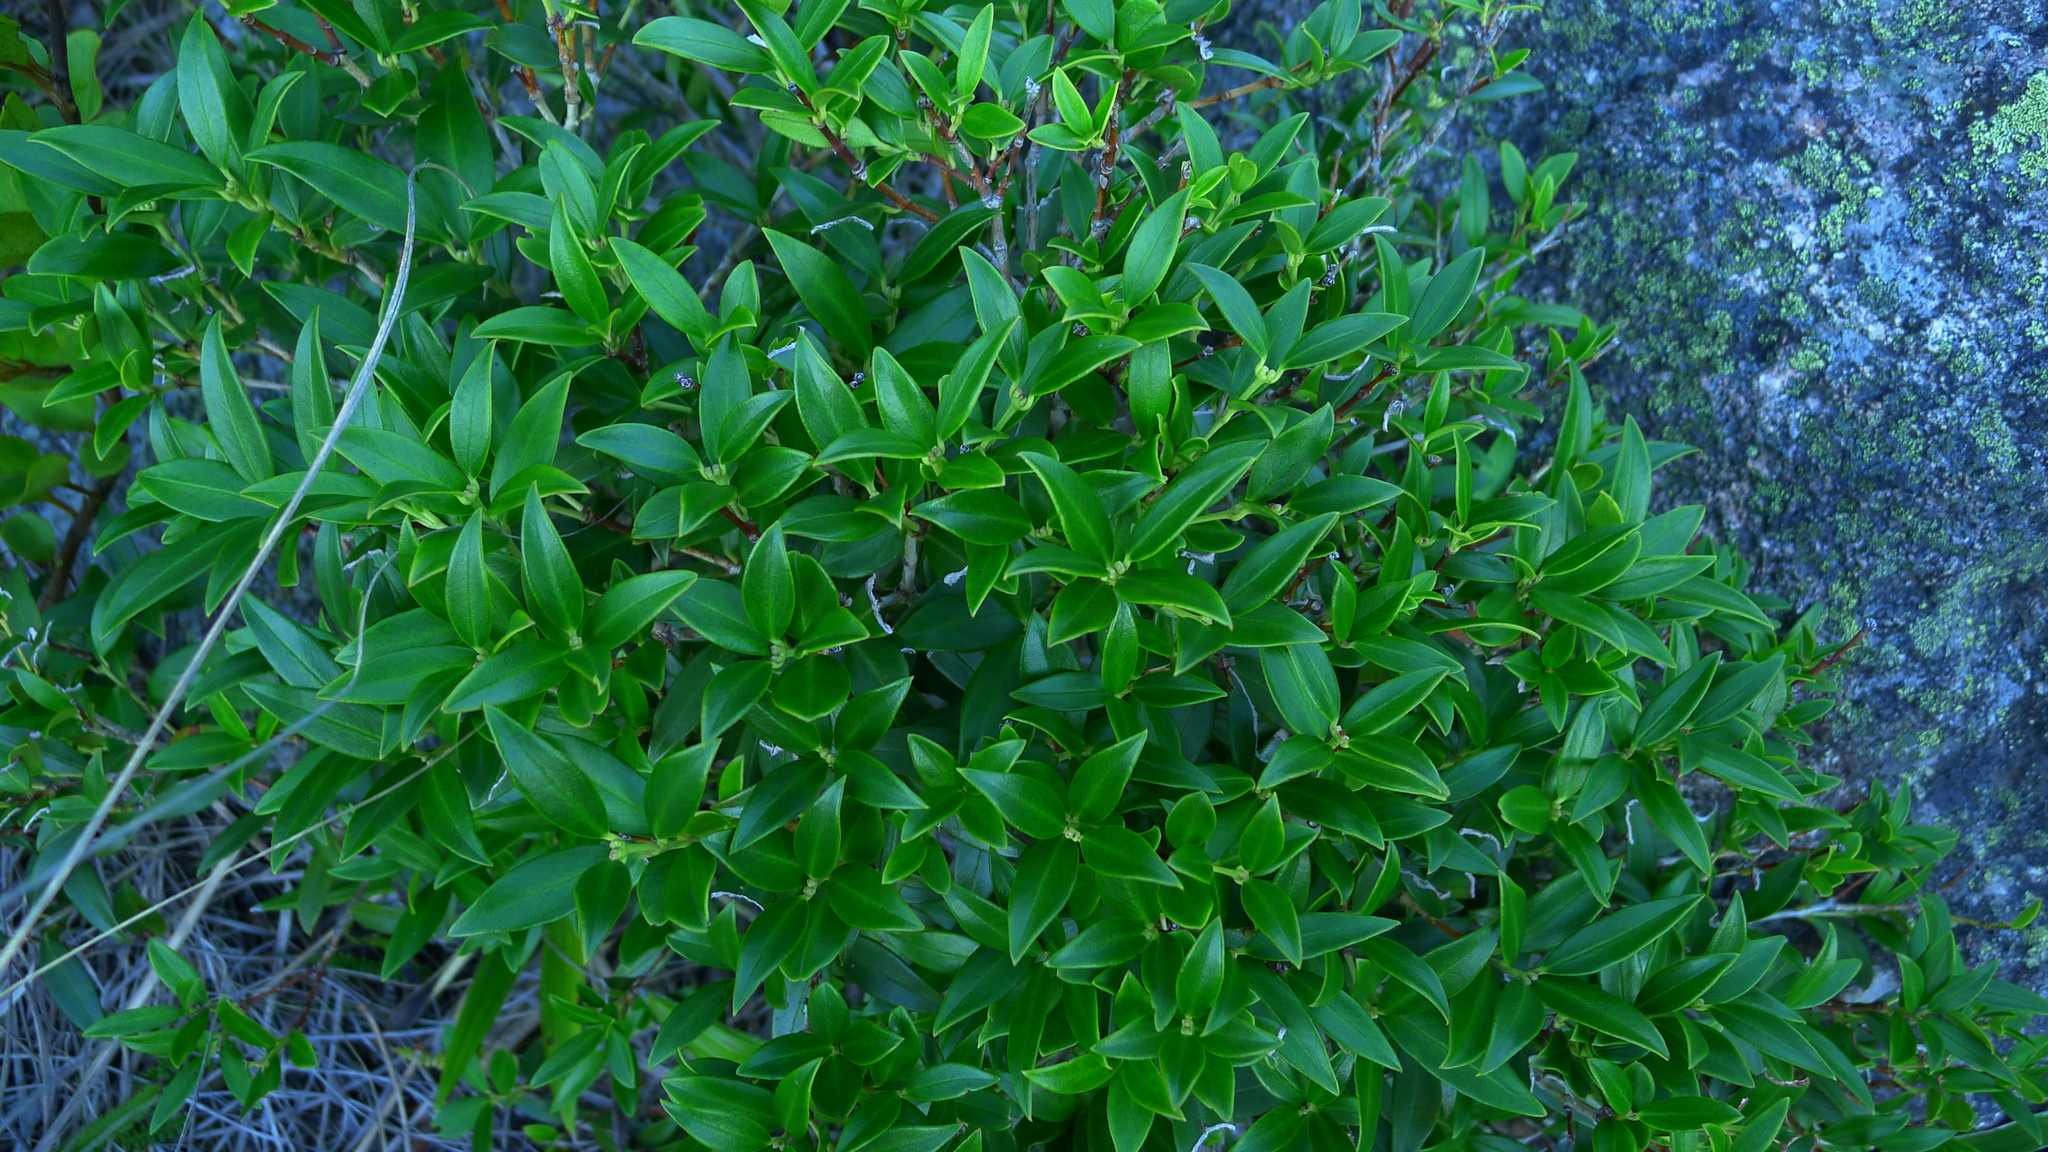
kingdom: Plantae
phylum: Tracheophyta
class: Magnoliopsida
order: Myrtales
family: Myrtaceae
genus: Metrosideros
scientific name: Metrosideros umbellata
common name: Southern rata
